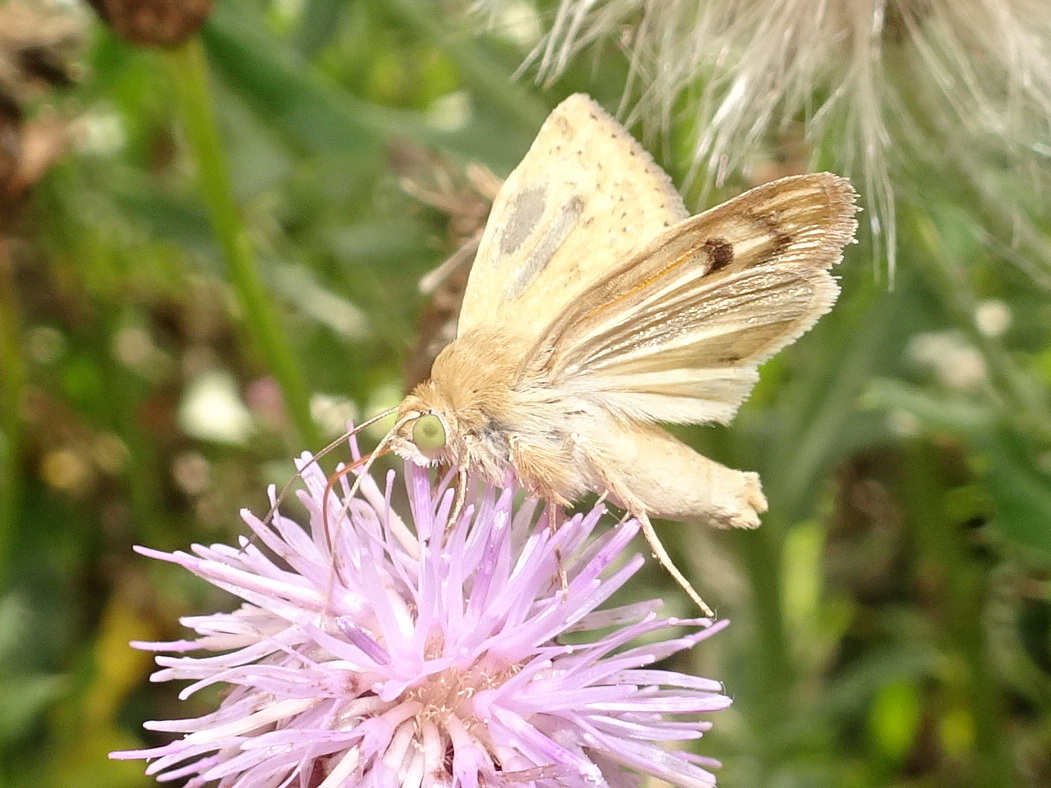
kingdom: Animalia
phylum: Arthropoda
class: Insecta
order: Lepidoptera
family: Noctuidae
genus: Heliocheilus
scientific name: Heliocheilus paradoxus
